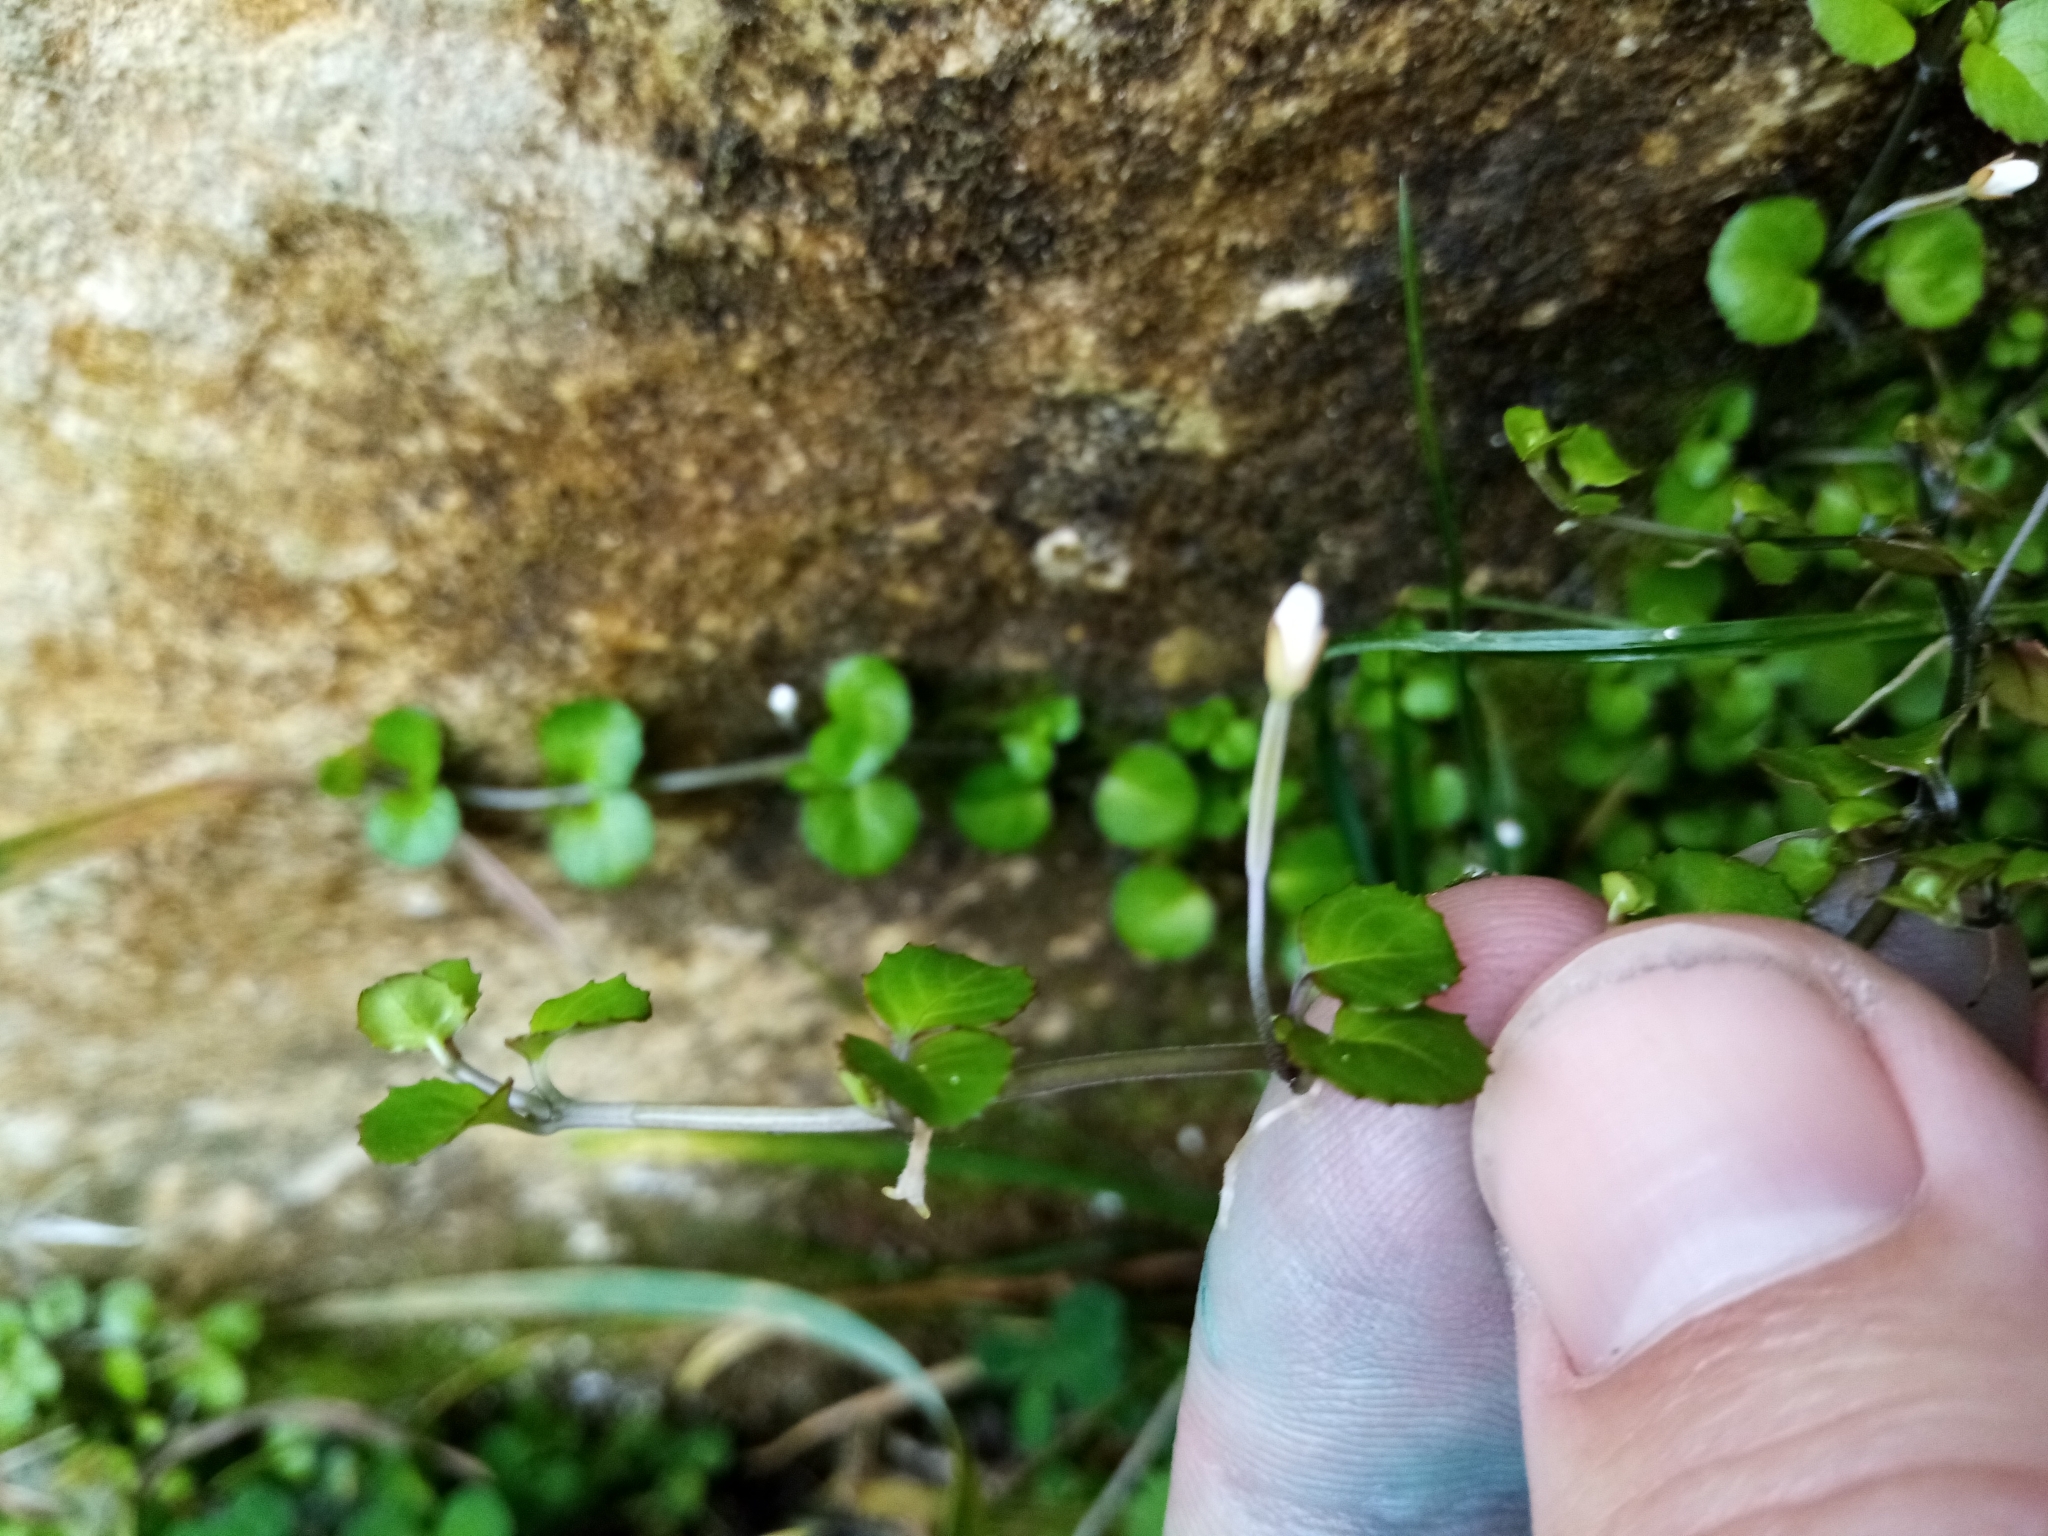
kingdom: Plantae
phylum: Tracheophyta
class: Magnoliopsida
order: Myrtales
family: Onagraceae
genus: Epilobium
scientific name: Epilobium nummularifolium
